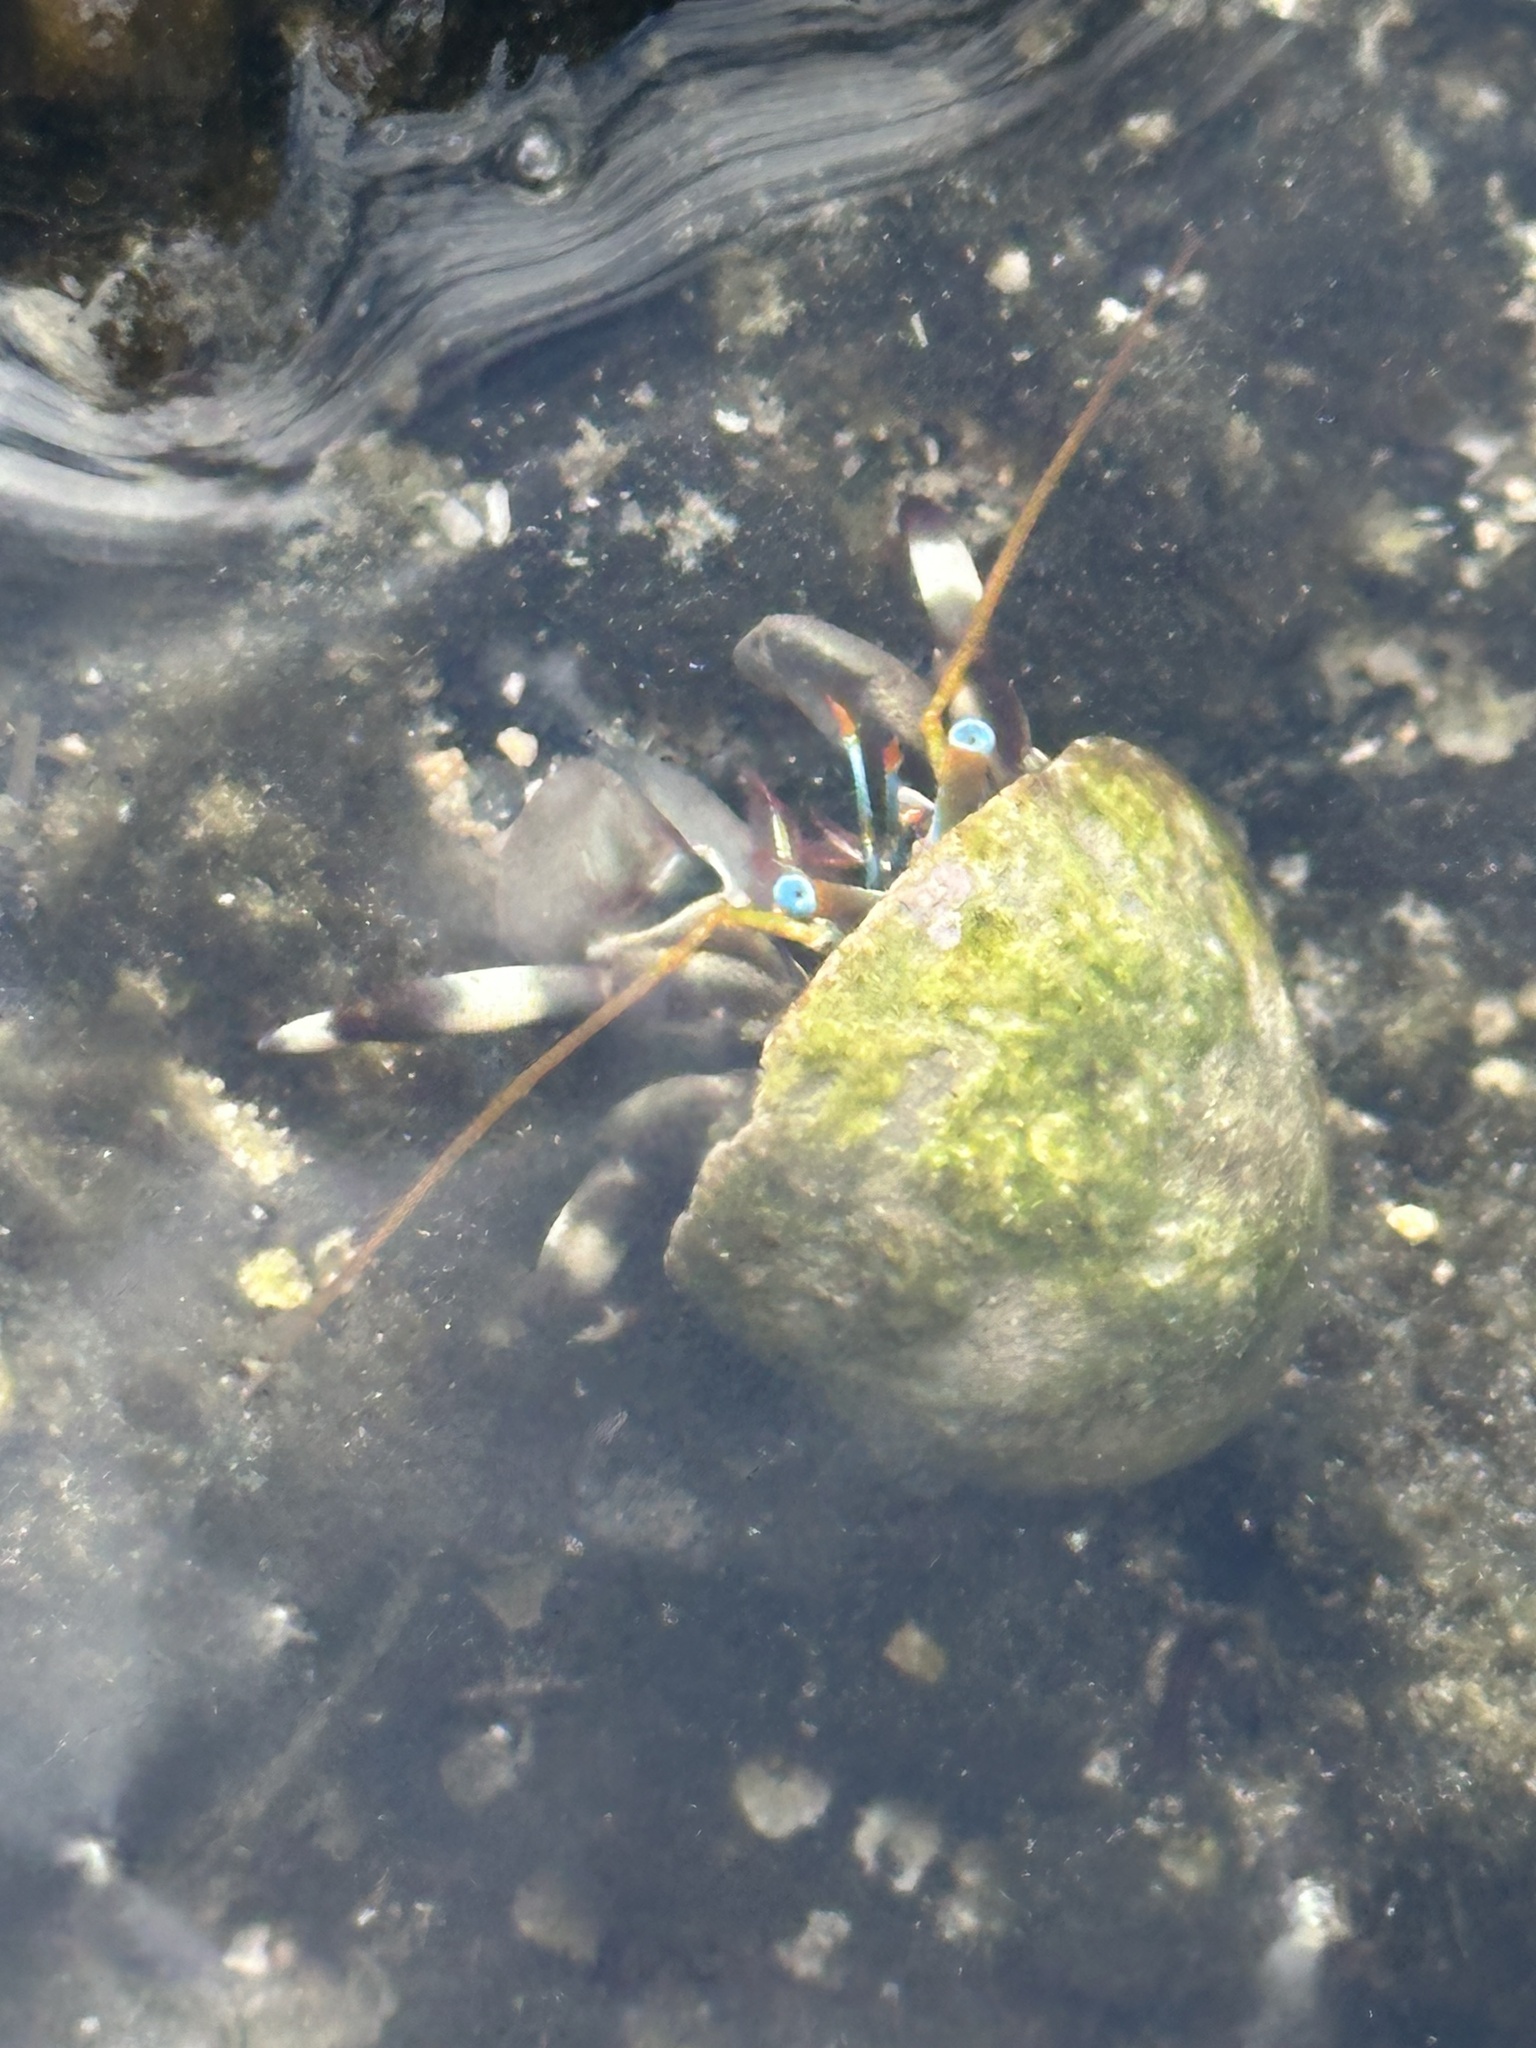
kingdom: Animalia
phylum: Arthropoda
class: Malacostraca
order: Decapoda
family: Diogenidae
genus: Calcinus
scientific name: Calcinus seurati
